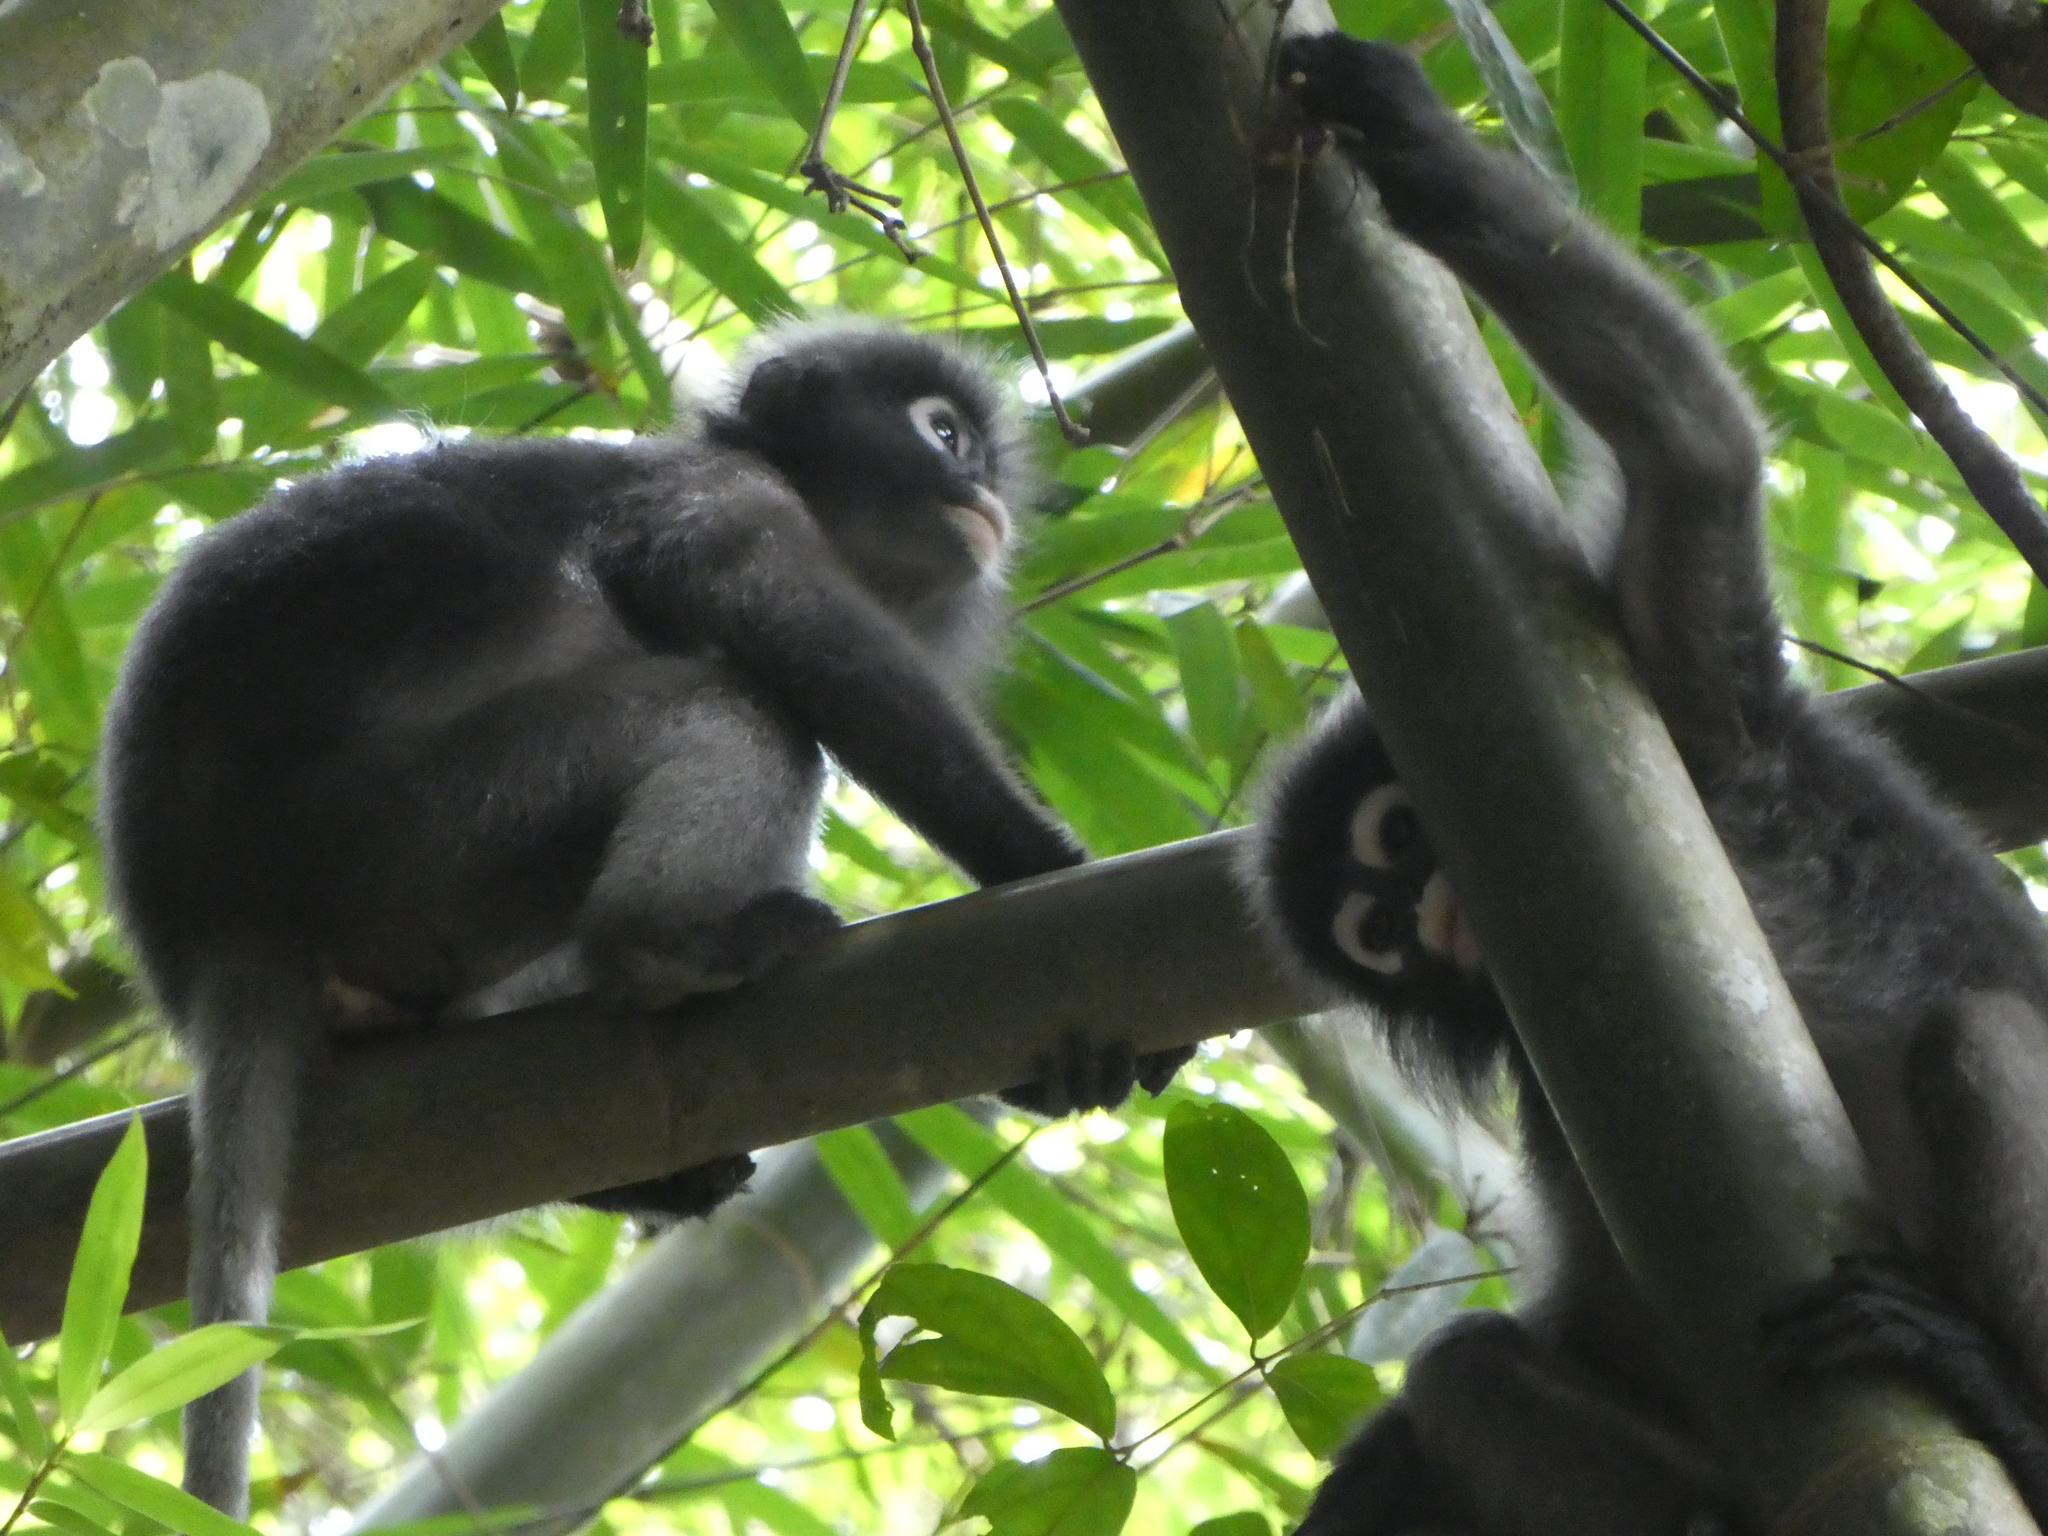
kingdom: Animalia
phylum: Chordata
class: Mammalia
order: Primates
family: Cercopithecidae
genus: Trachypithecus
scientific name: Trachypithecus obscurus
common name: Dusky leaf-monkey
